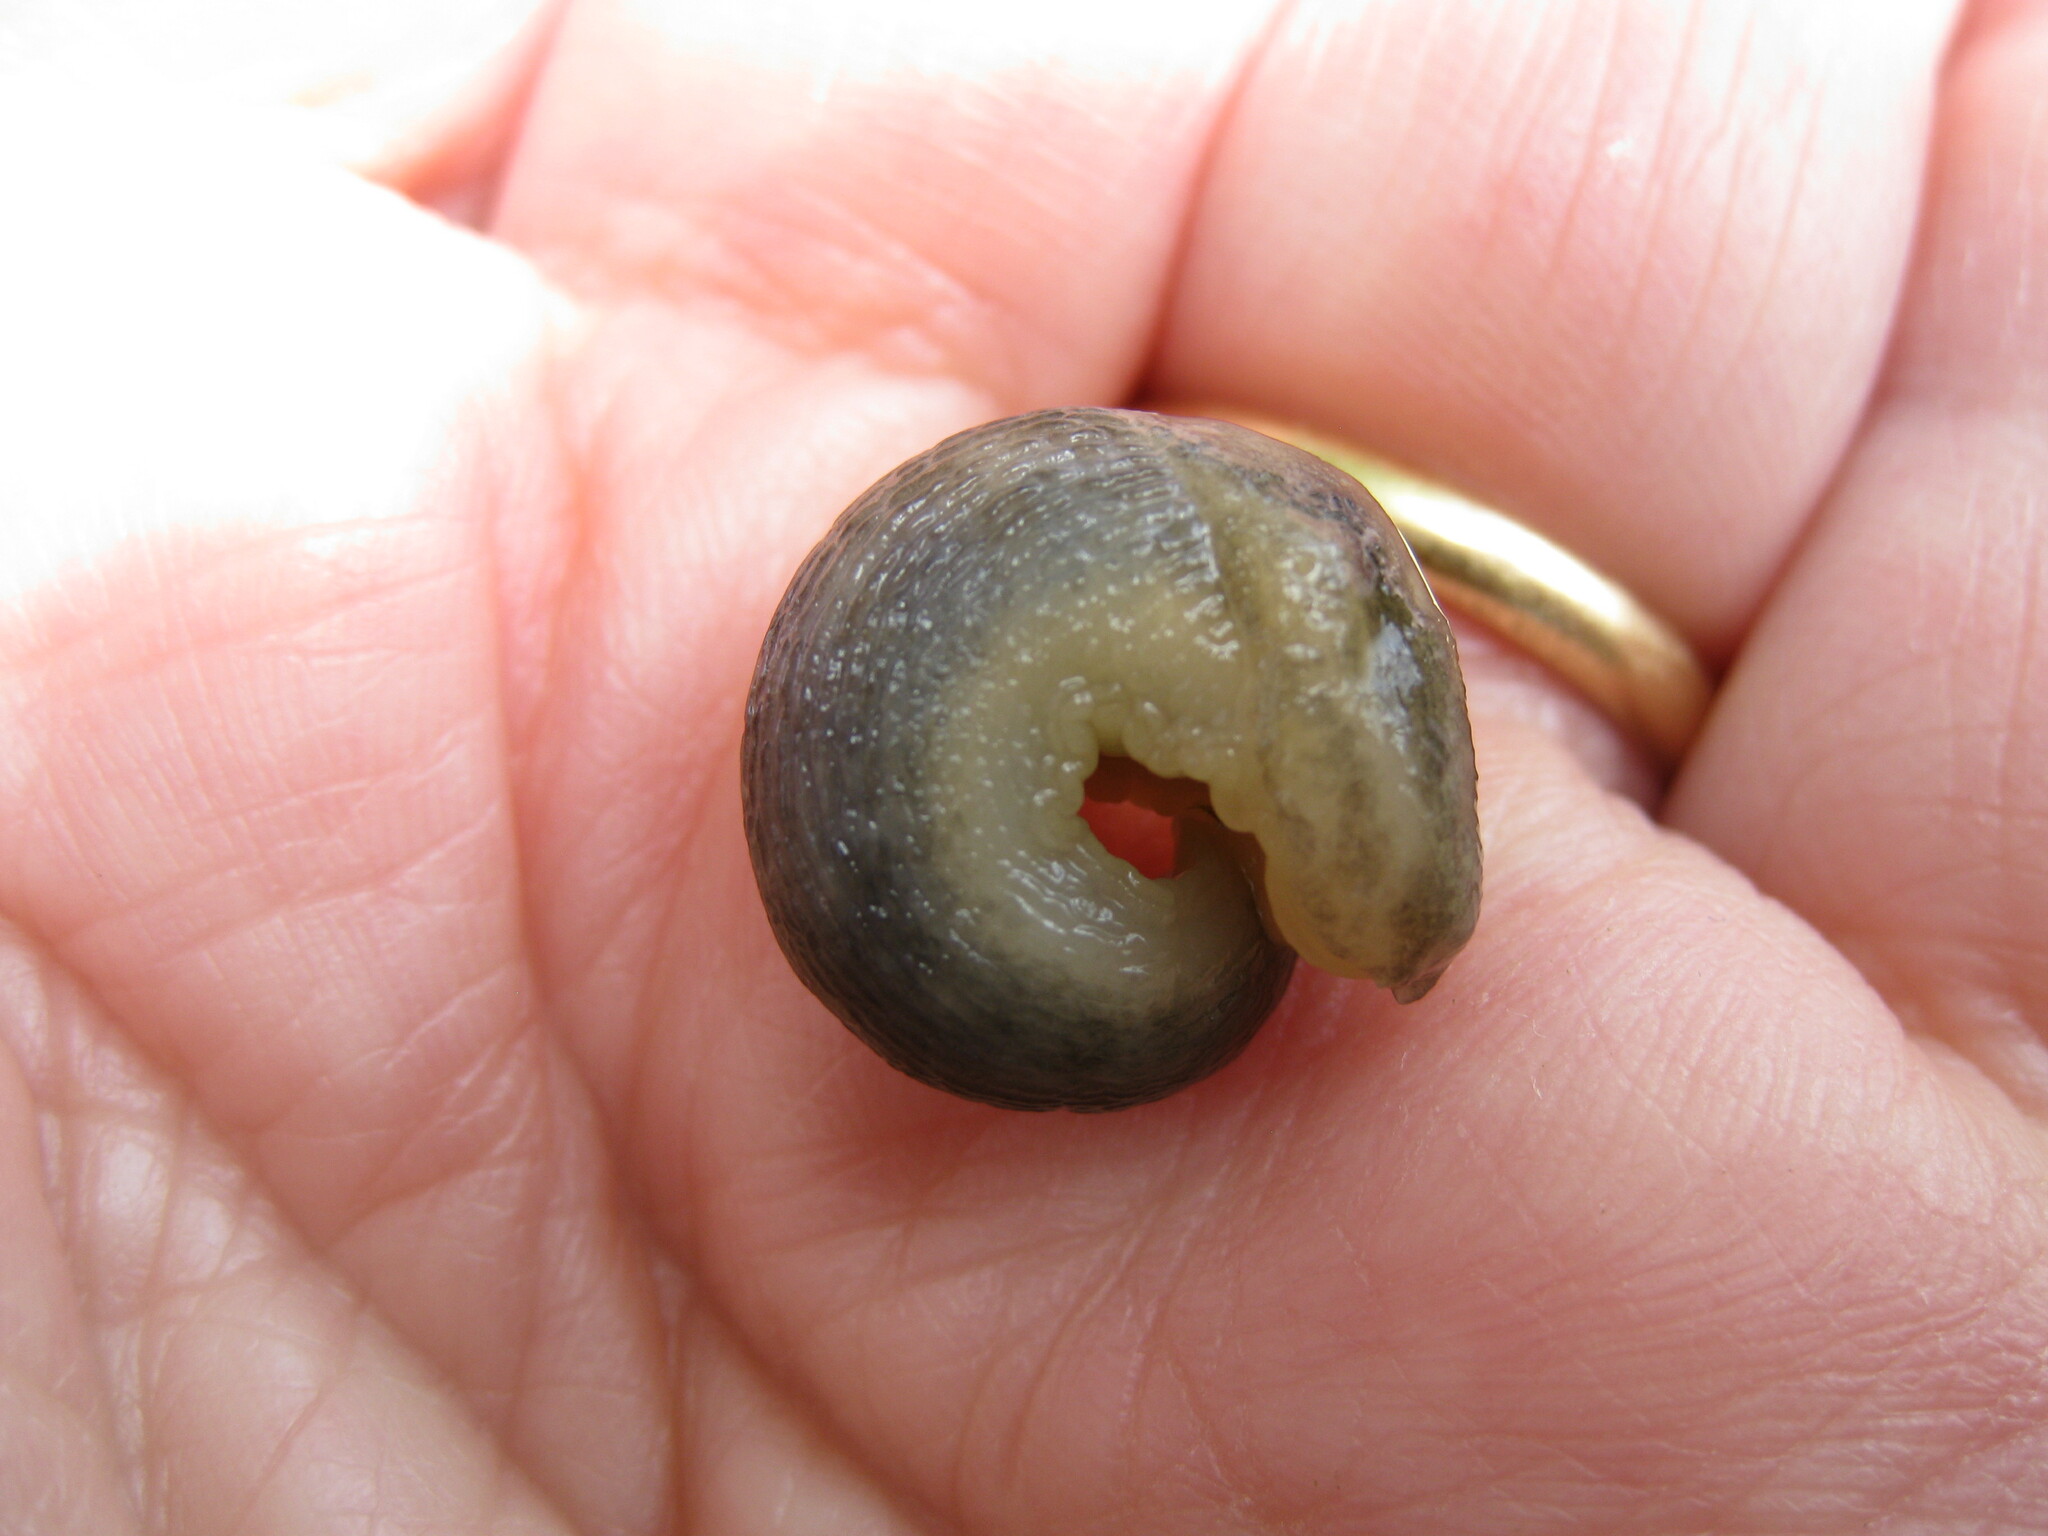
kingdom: Animalia
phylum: Mollusca
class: Gastropoda
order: Stylommatophora
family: Limacidae
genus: Lehmannia
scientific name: Lehmannia marginata
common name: Tree slug
